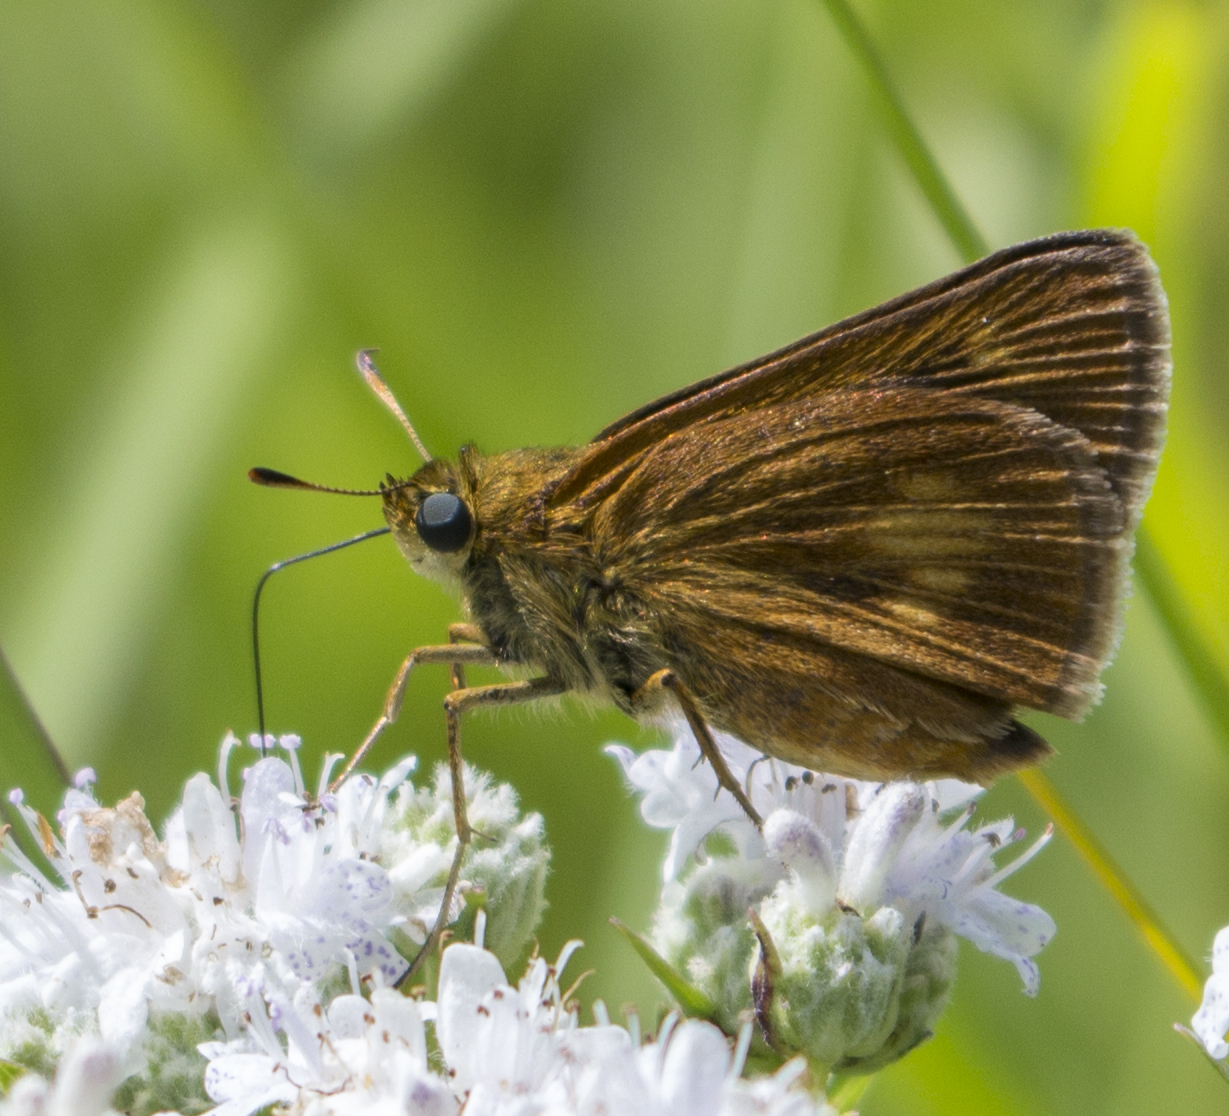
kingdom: Animalia
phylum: Arthropoda
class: Insecta
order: Lepidoptera
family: Hesperiidae
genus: Euphyes
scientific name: Euphyes conspicua
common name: Black dash
